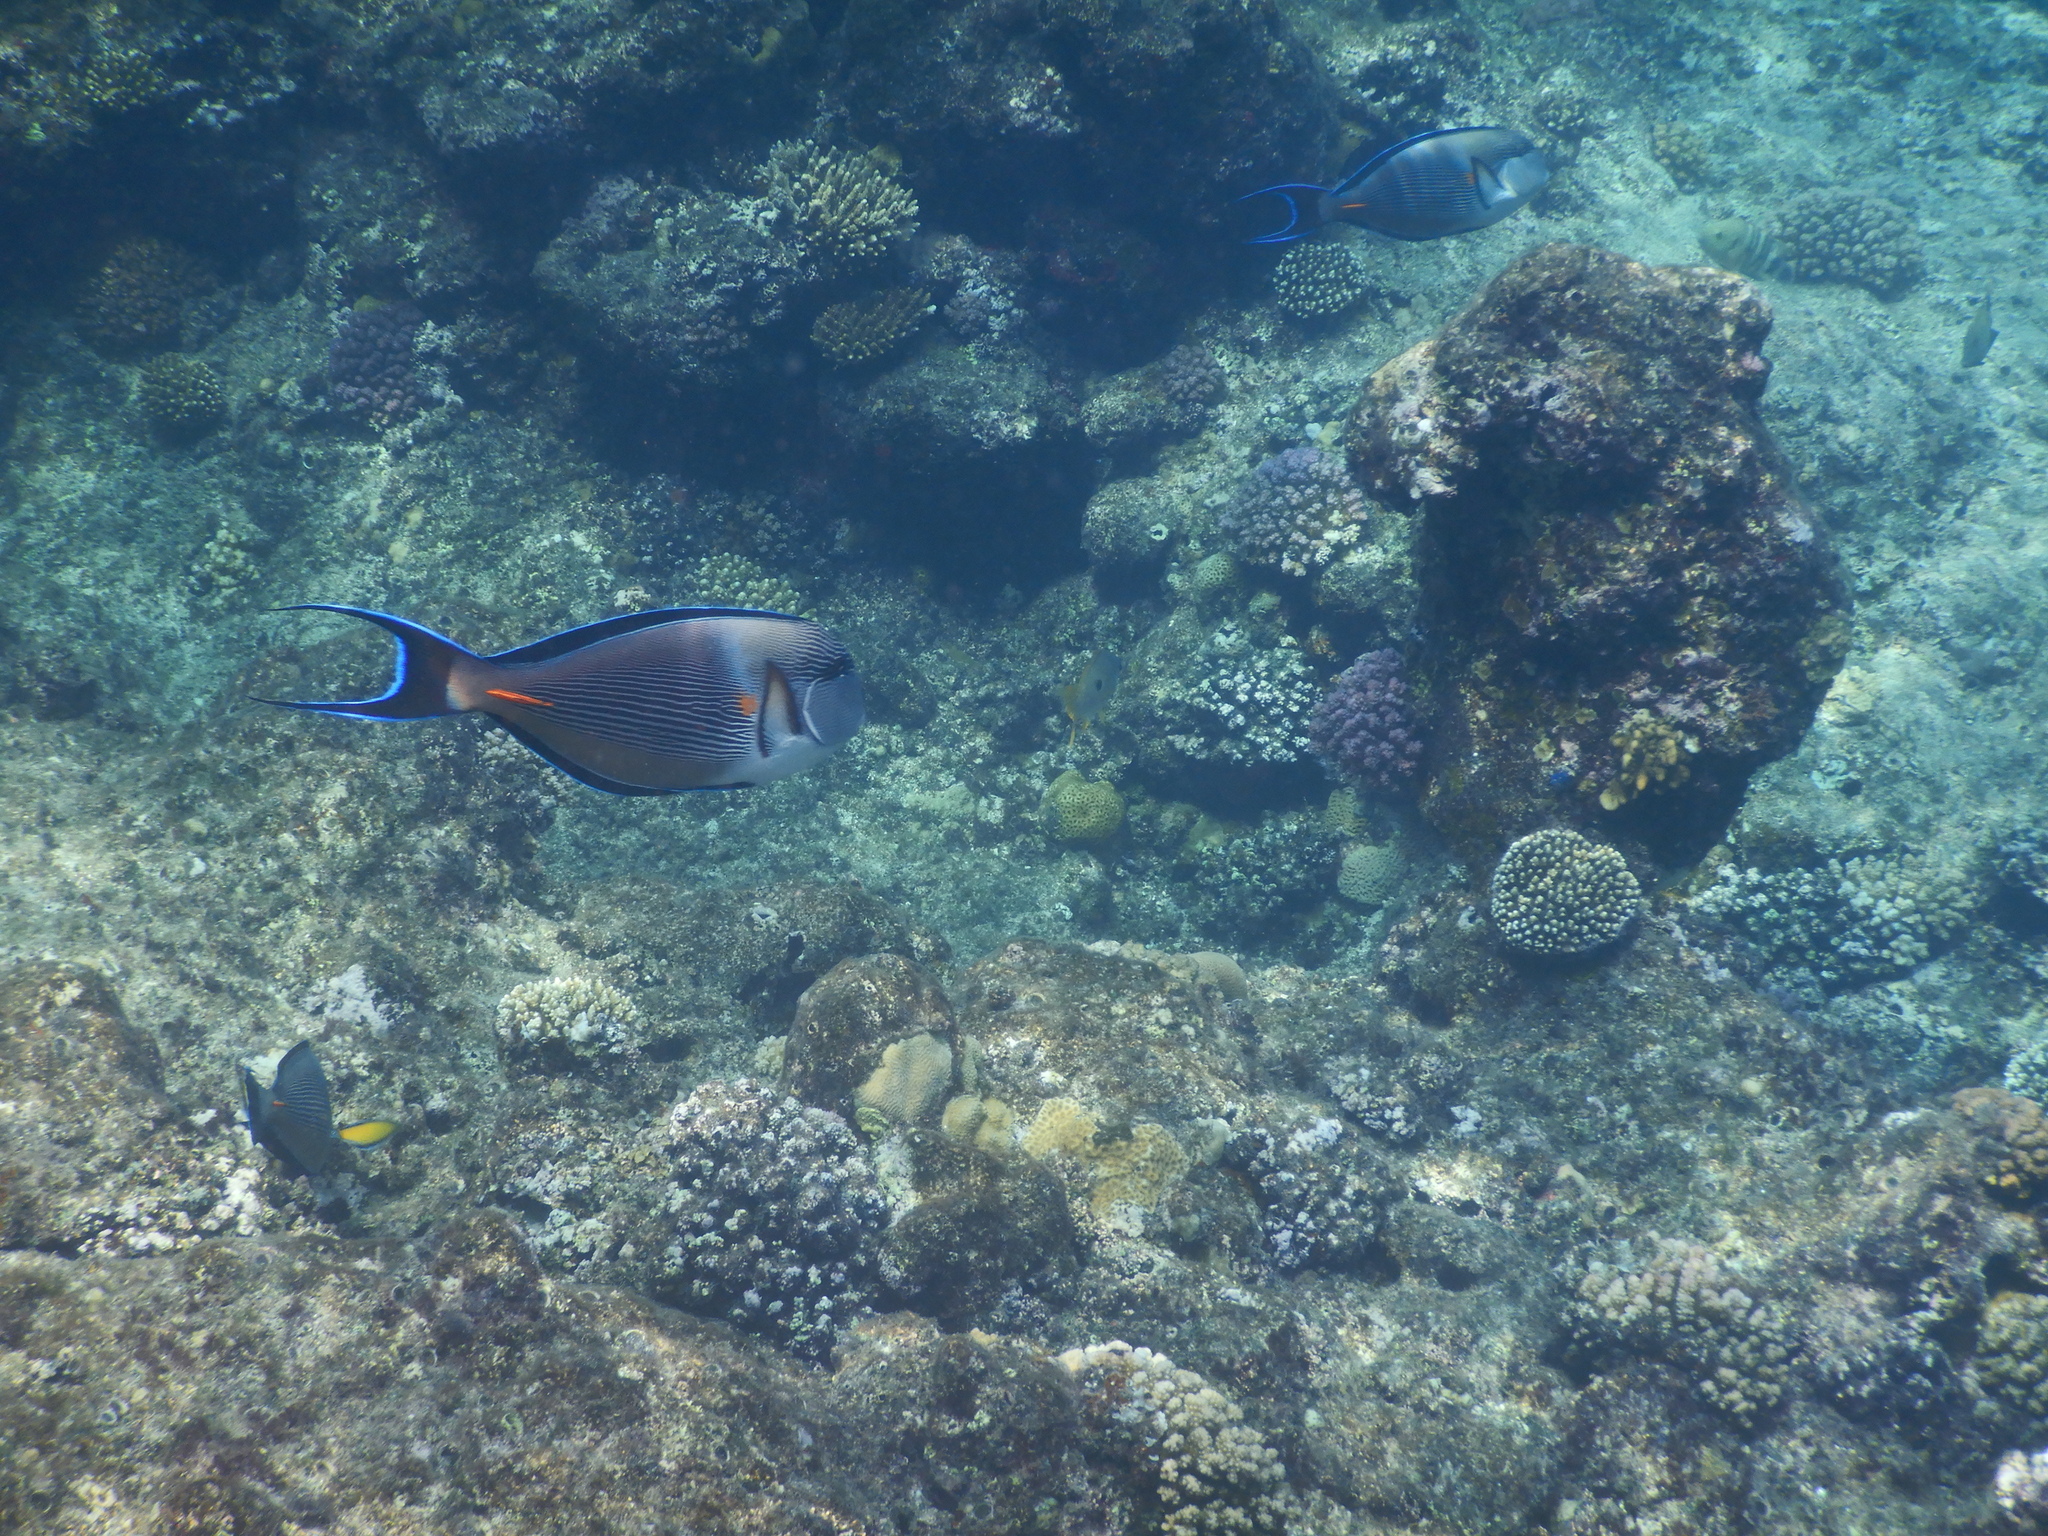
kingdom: Animalia
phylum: Chordata
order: Perciformes
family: Acanthuridae
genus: Acanthurus
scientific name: Acanthurus sohal
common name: Red sea surgeonfish
